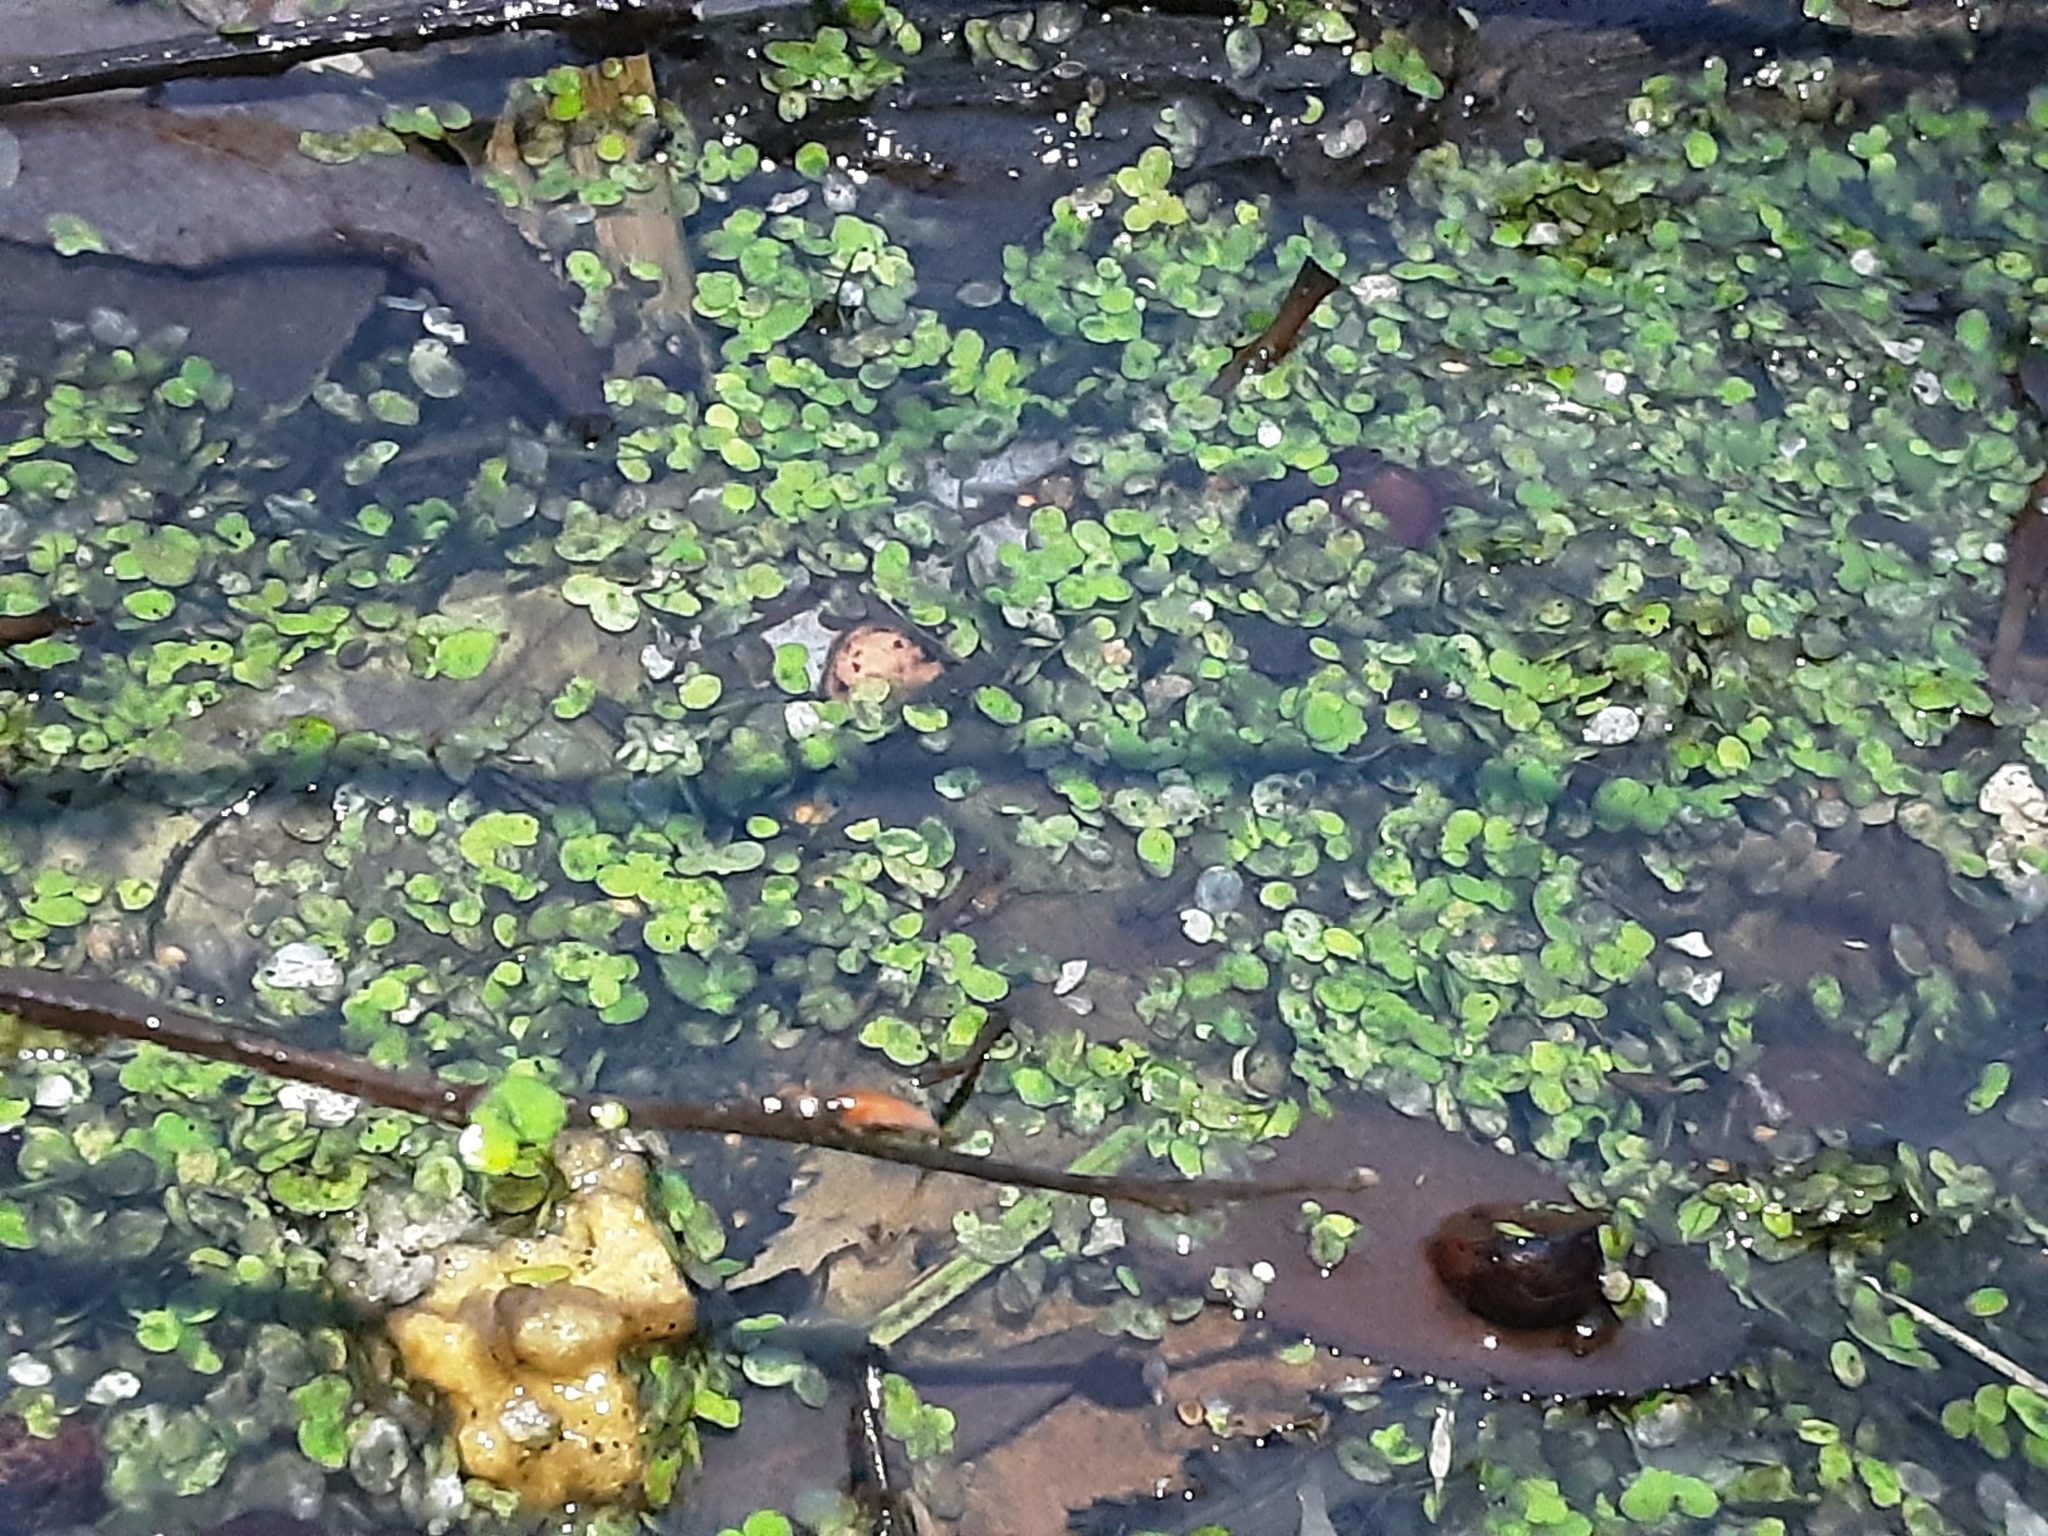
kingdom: Plantae
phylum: Tracheophyta
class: Liliopsida
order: Alismatales
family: Araceae
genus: Lemna
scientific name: Lemna
